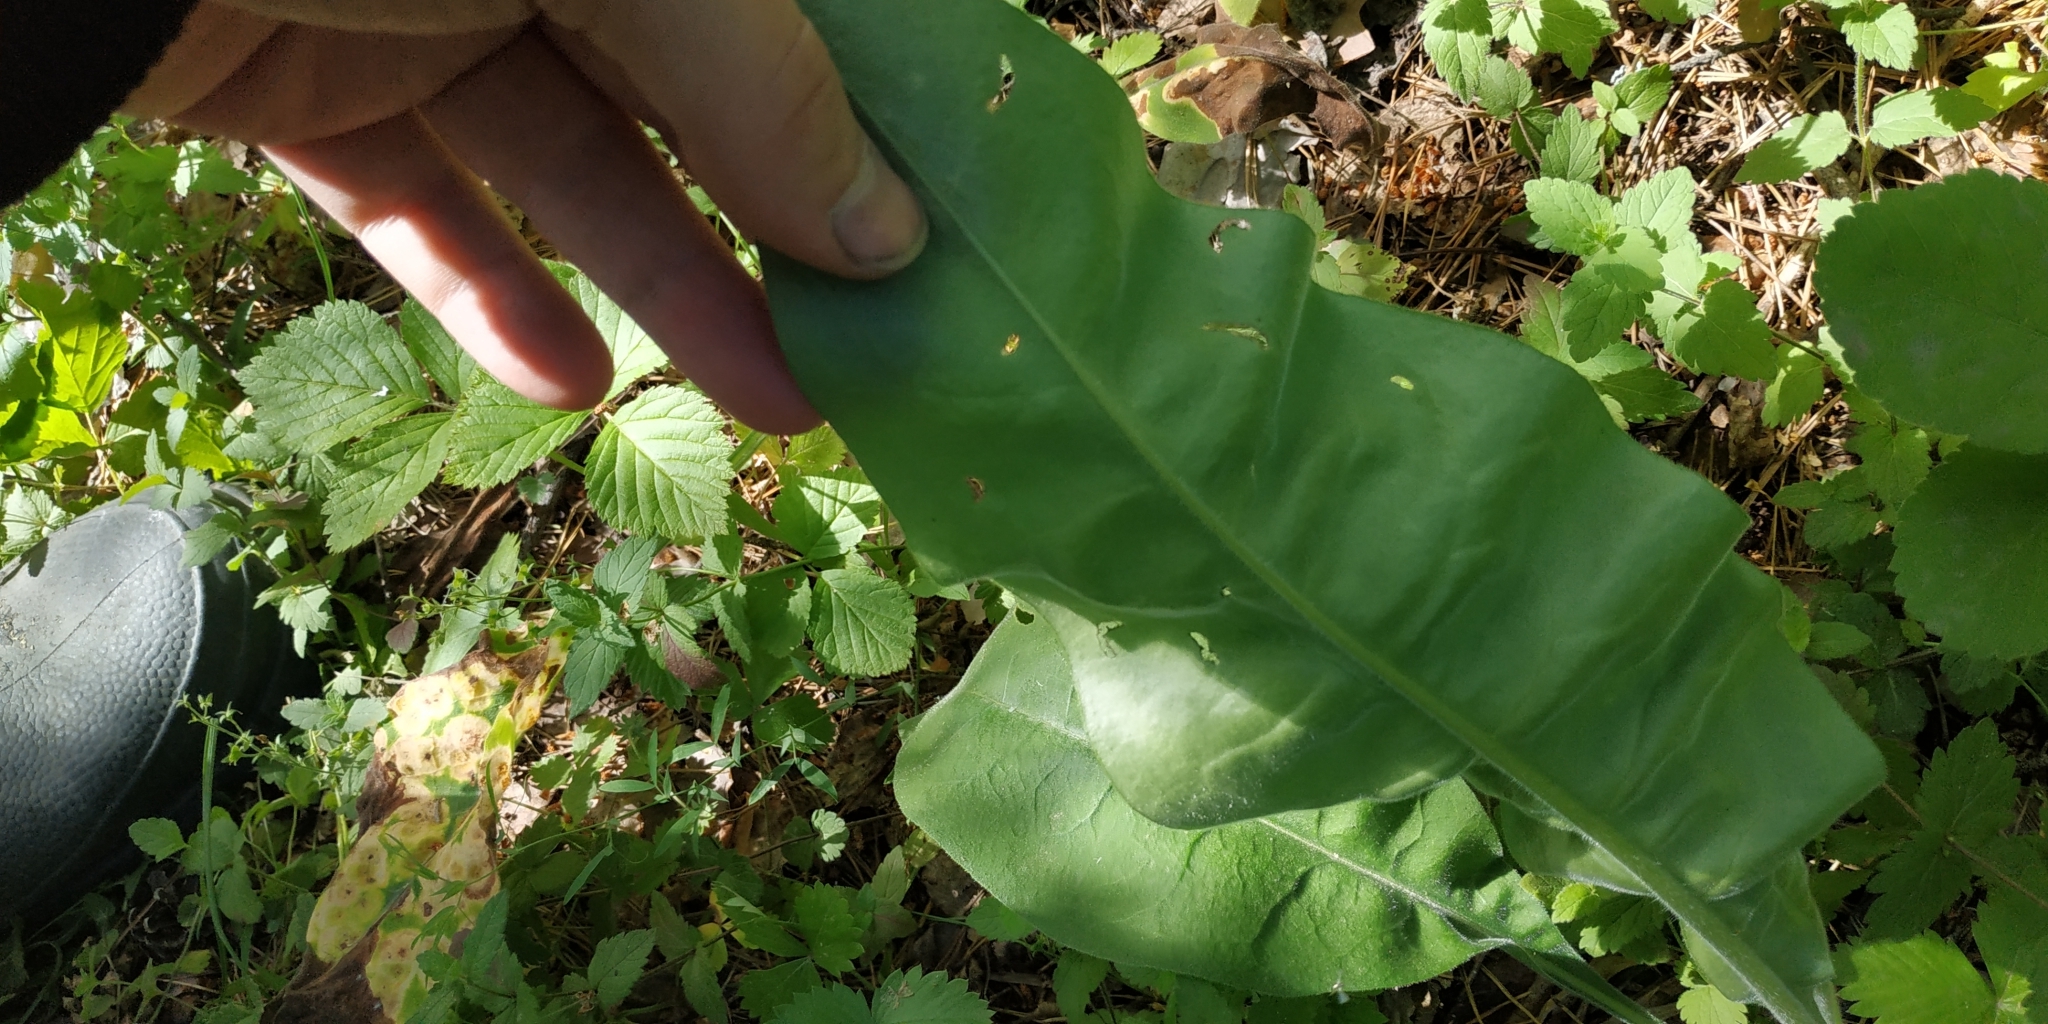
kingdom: Plantae
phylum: Tracheophyta
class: Magnoliopsida
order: Boraginales
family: Boraginaceae
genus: Pulmonaria
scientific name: Pulmonaria mollis
